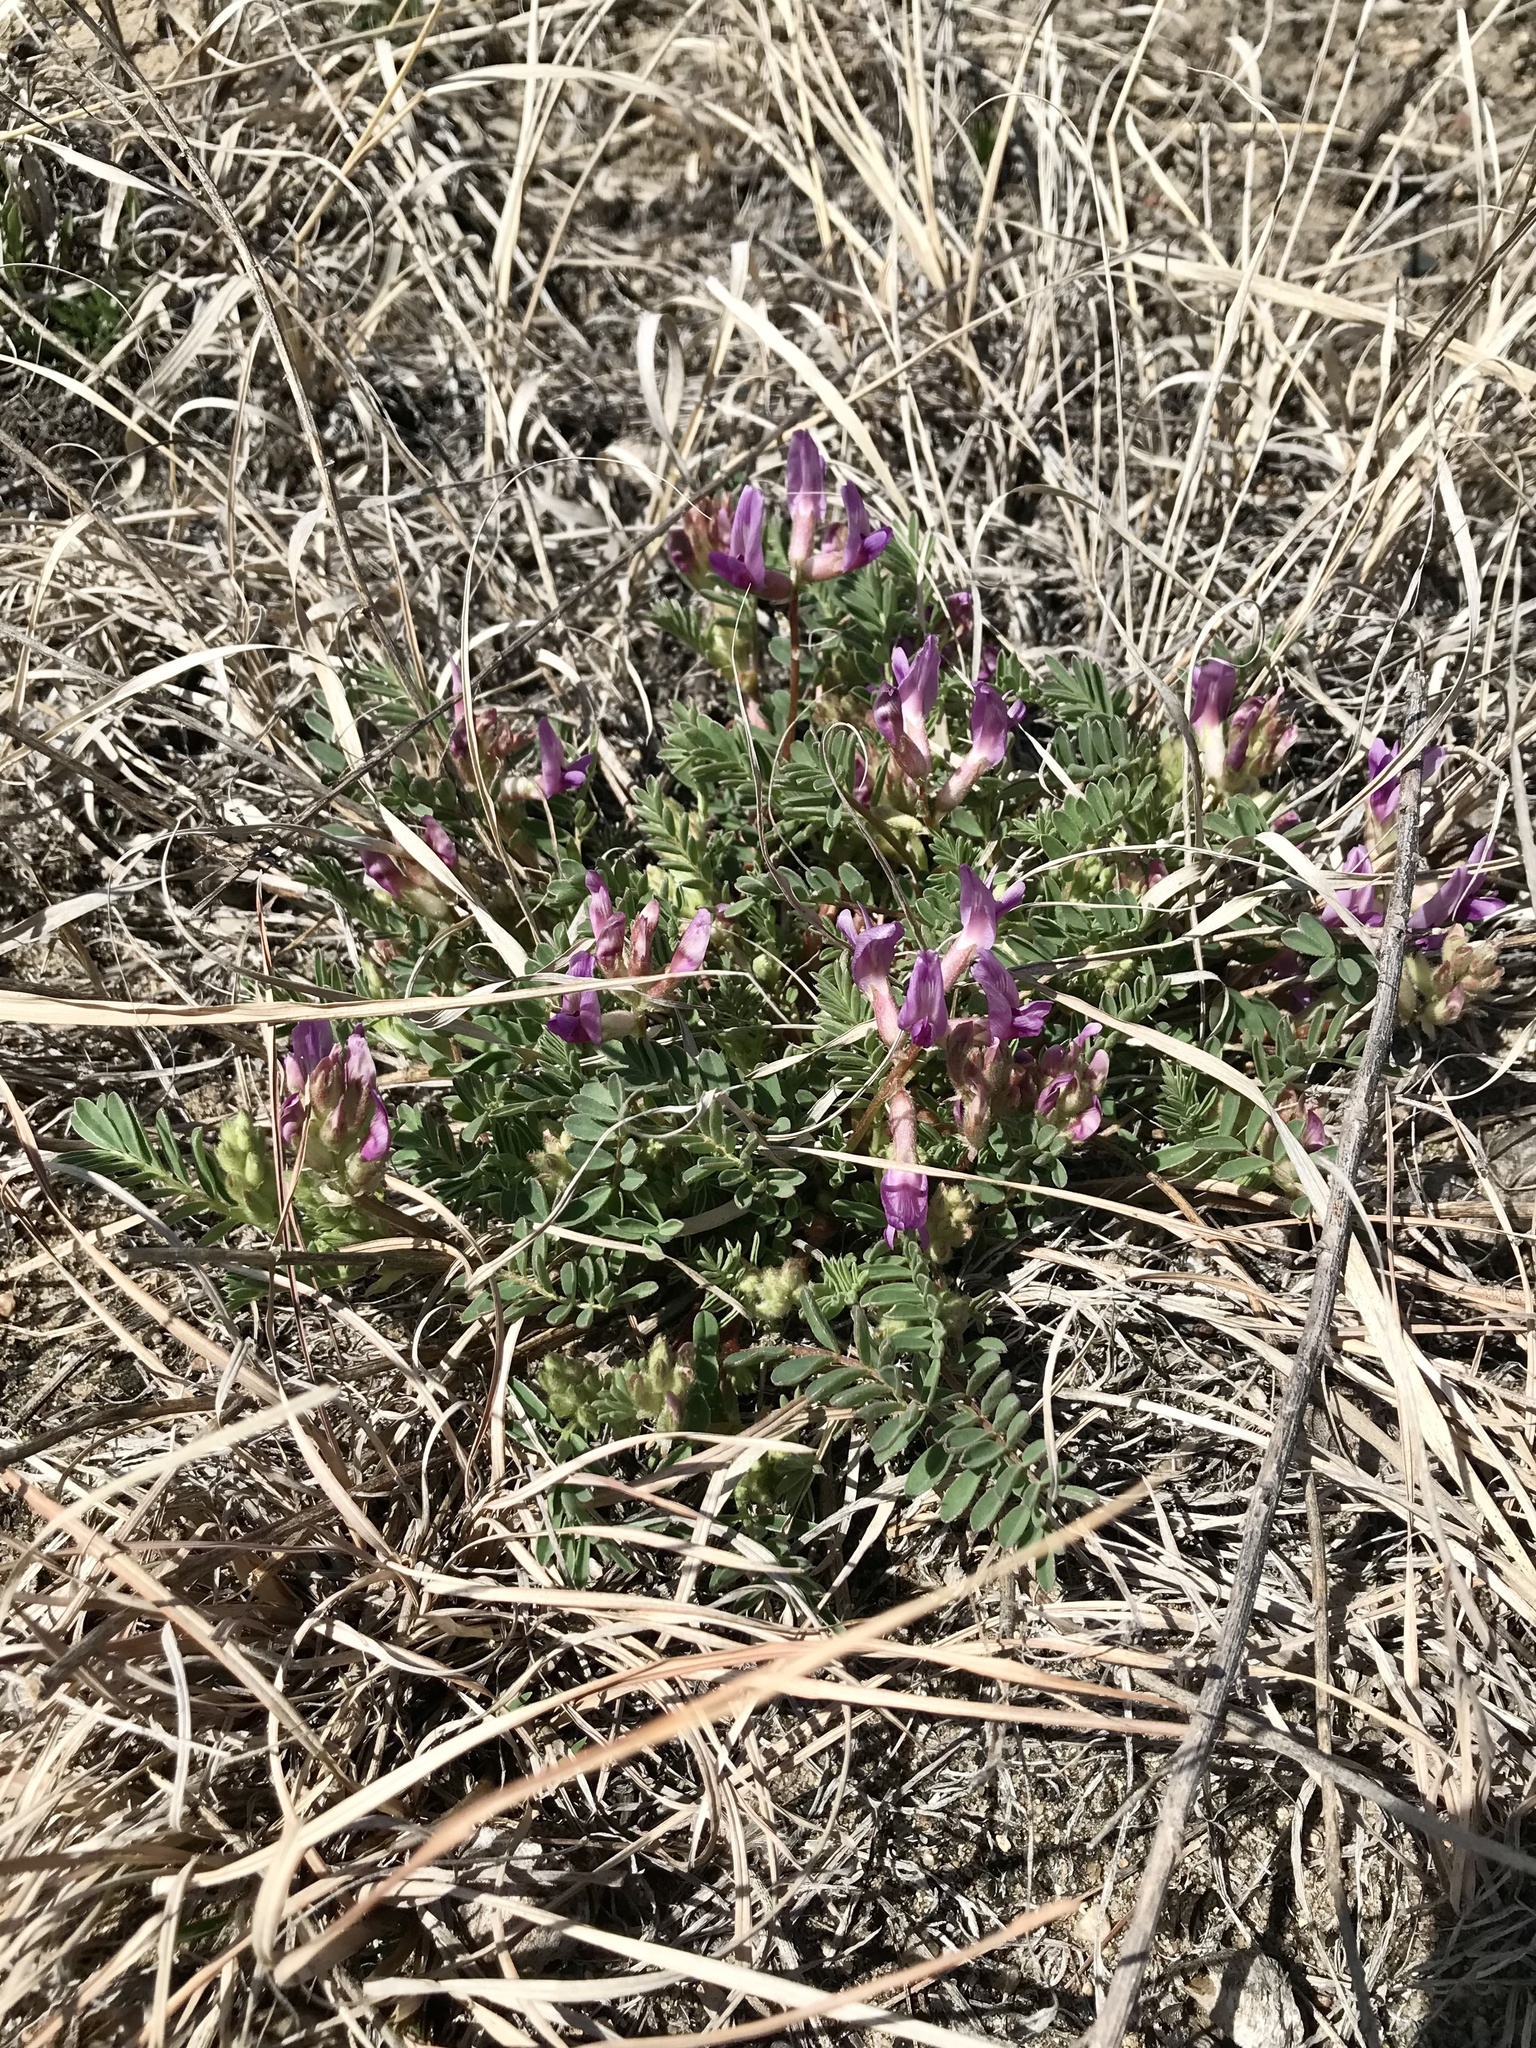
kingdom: Plantae
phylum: Tracheophyta
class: Magnoliopsida
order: Fabales
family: Fabaceae
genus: Astragalus
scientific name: Astragalus crassicarpus
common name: Ground-plum milk-vetch
